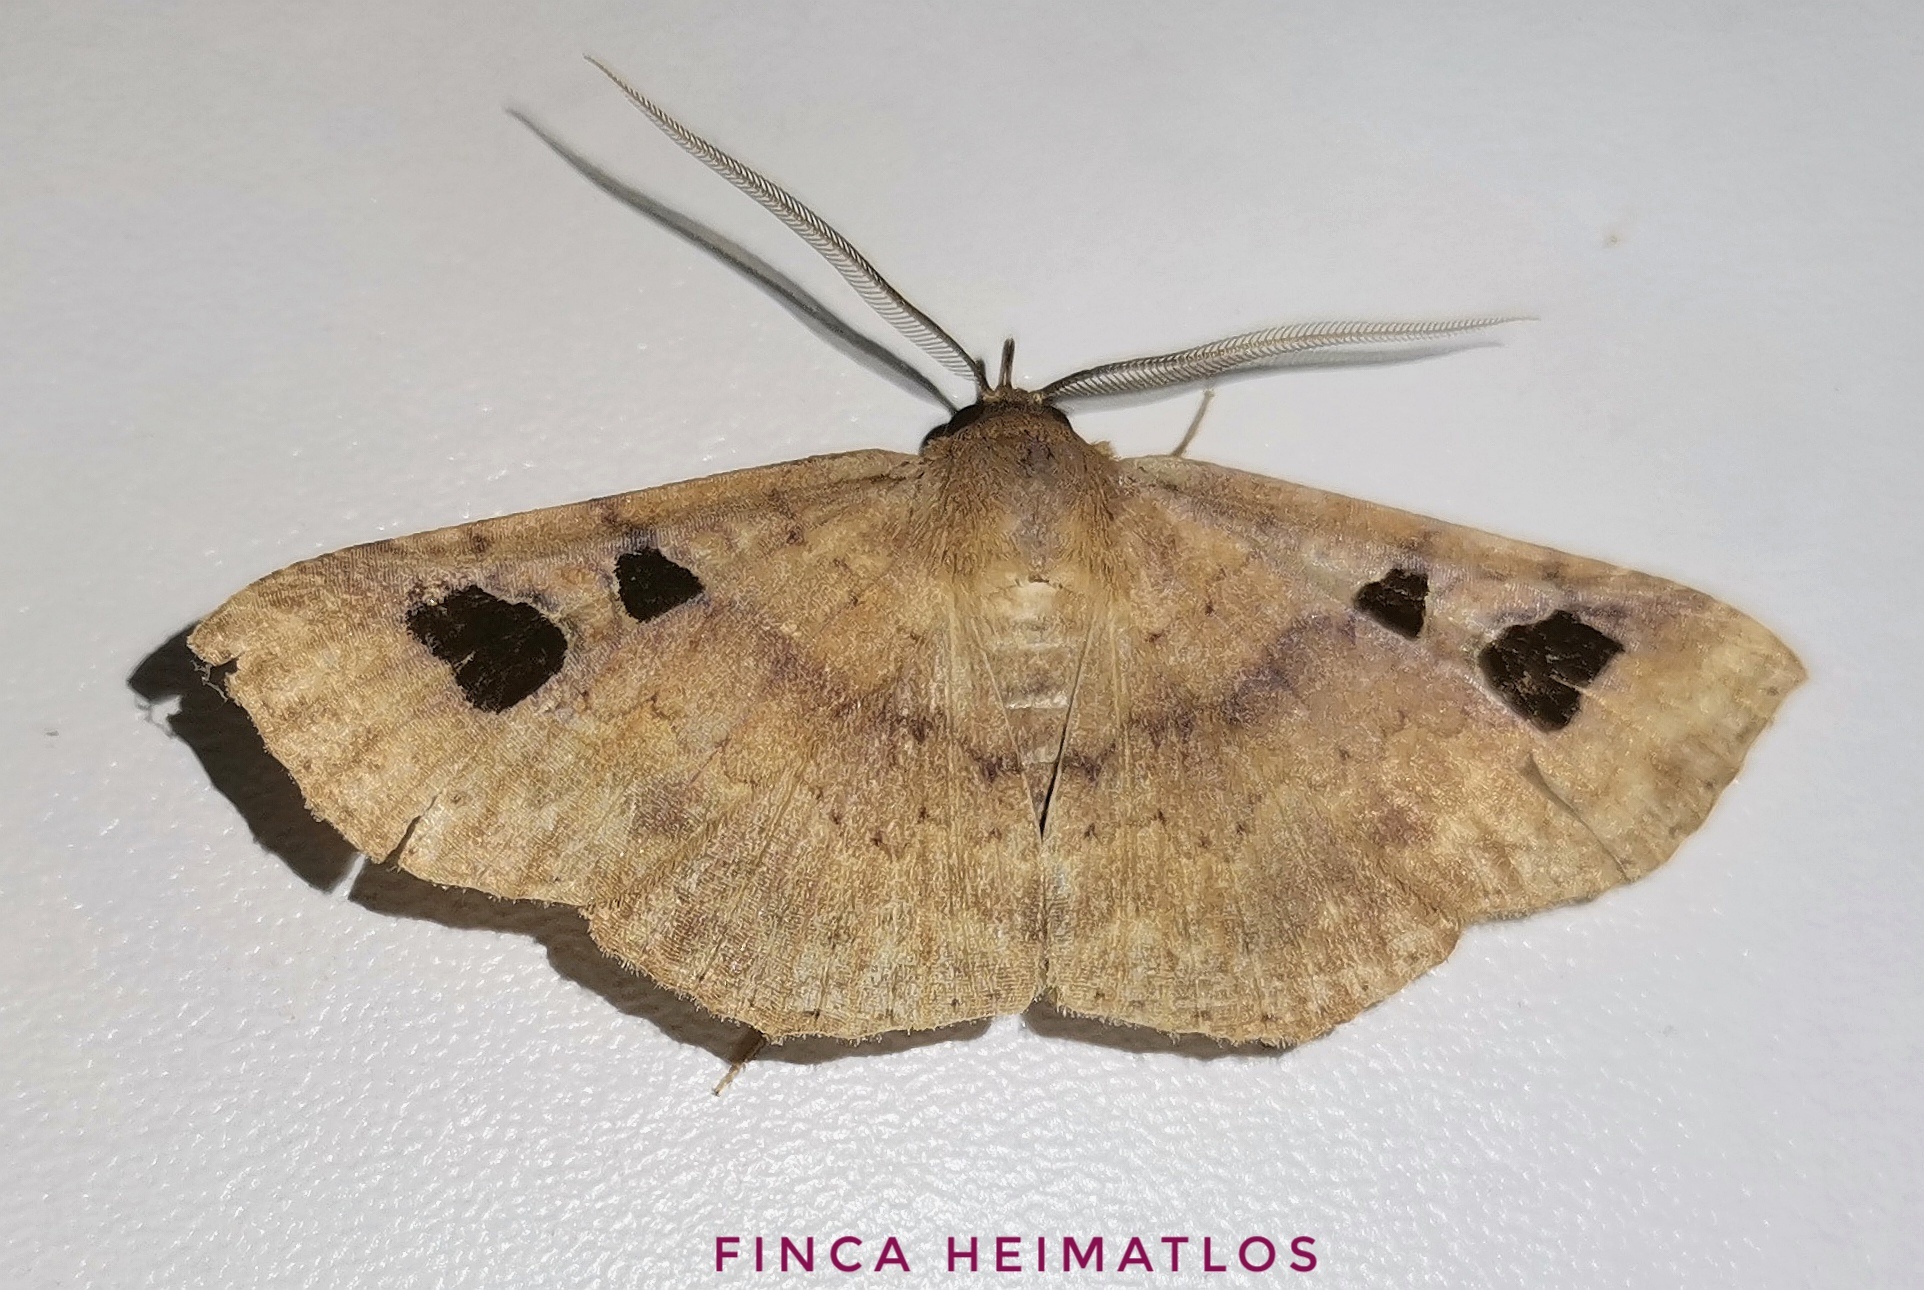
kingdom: Animalia
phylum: Arthropoda
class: Insecta
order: Lepidoptera
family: Erebidae
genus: Manbuta
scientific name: Manbuta Triommatodes adversa
